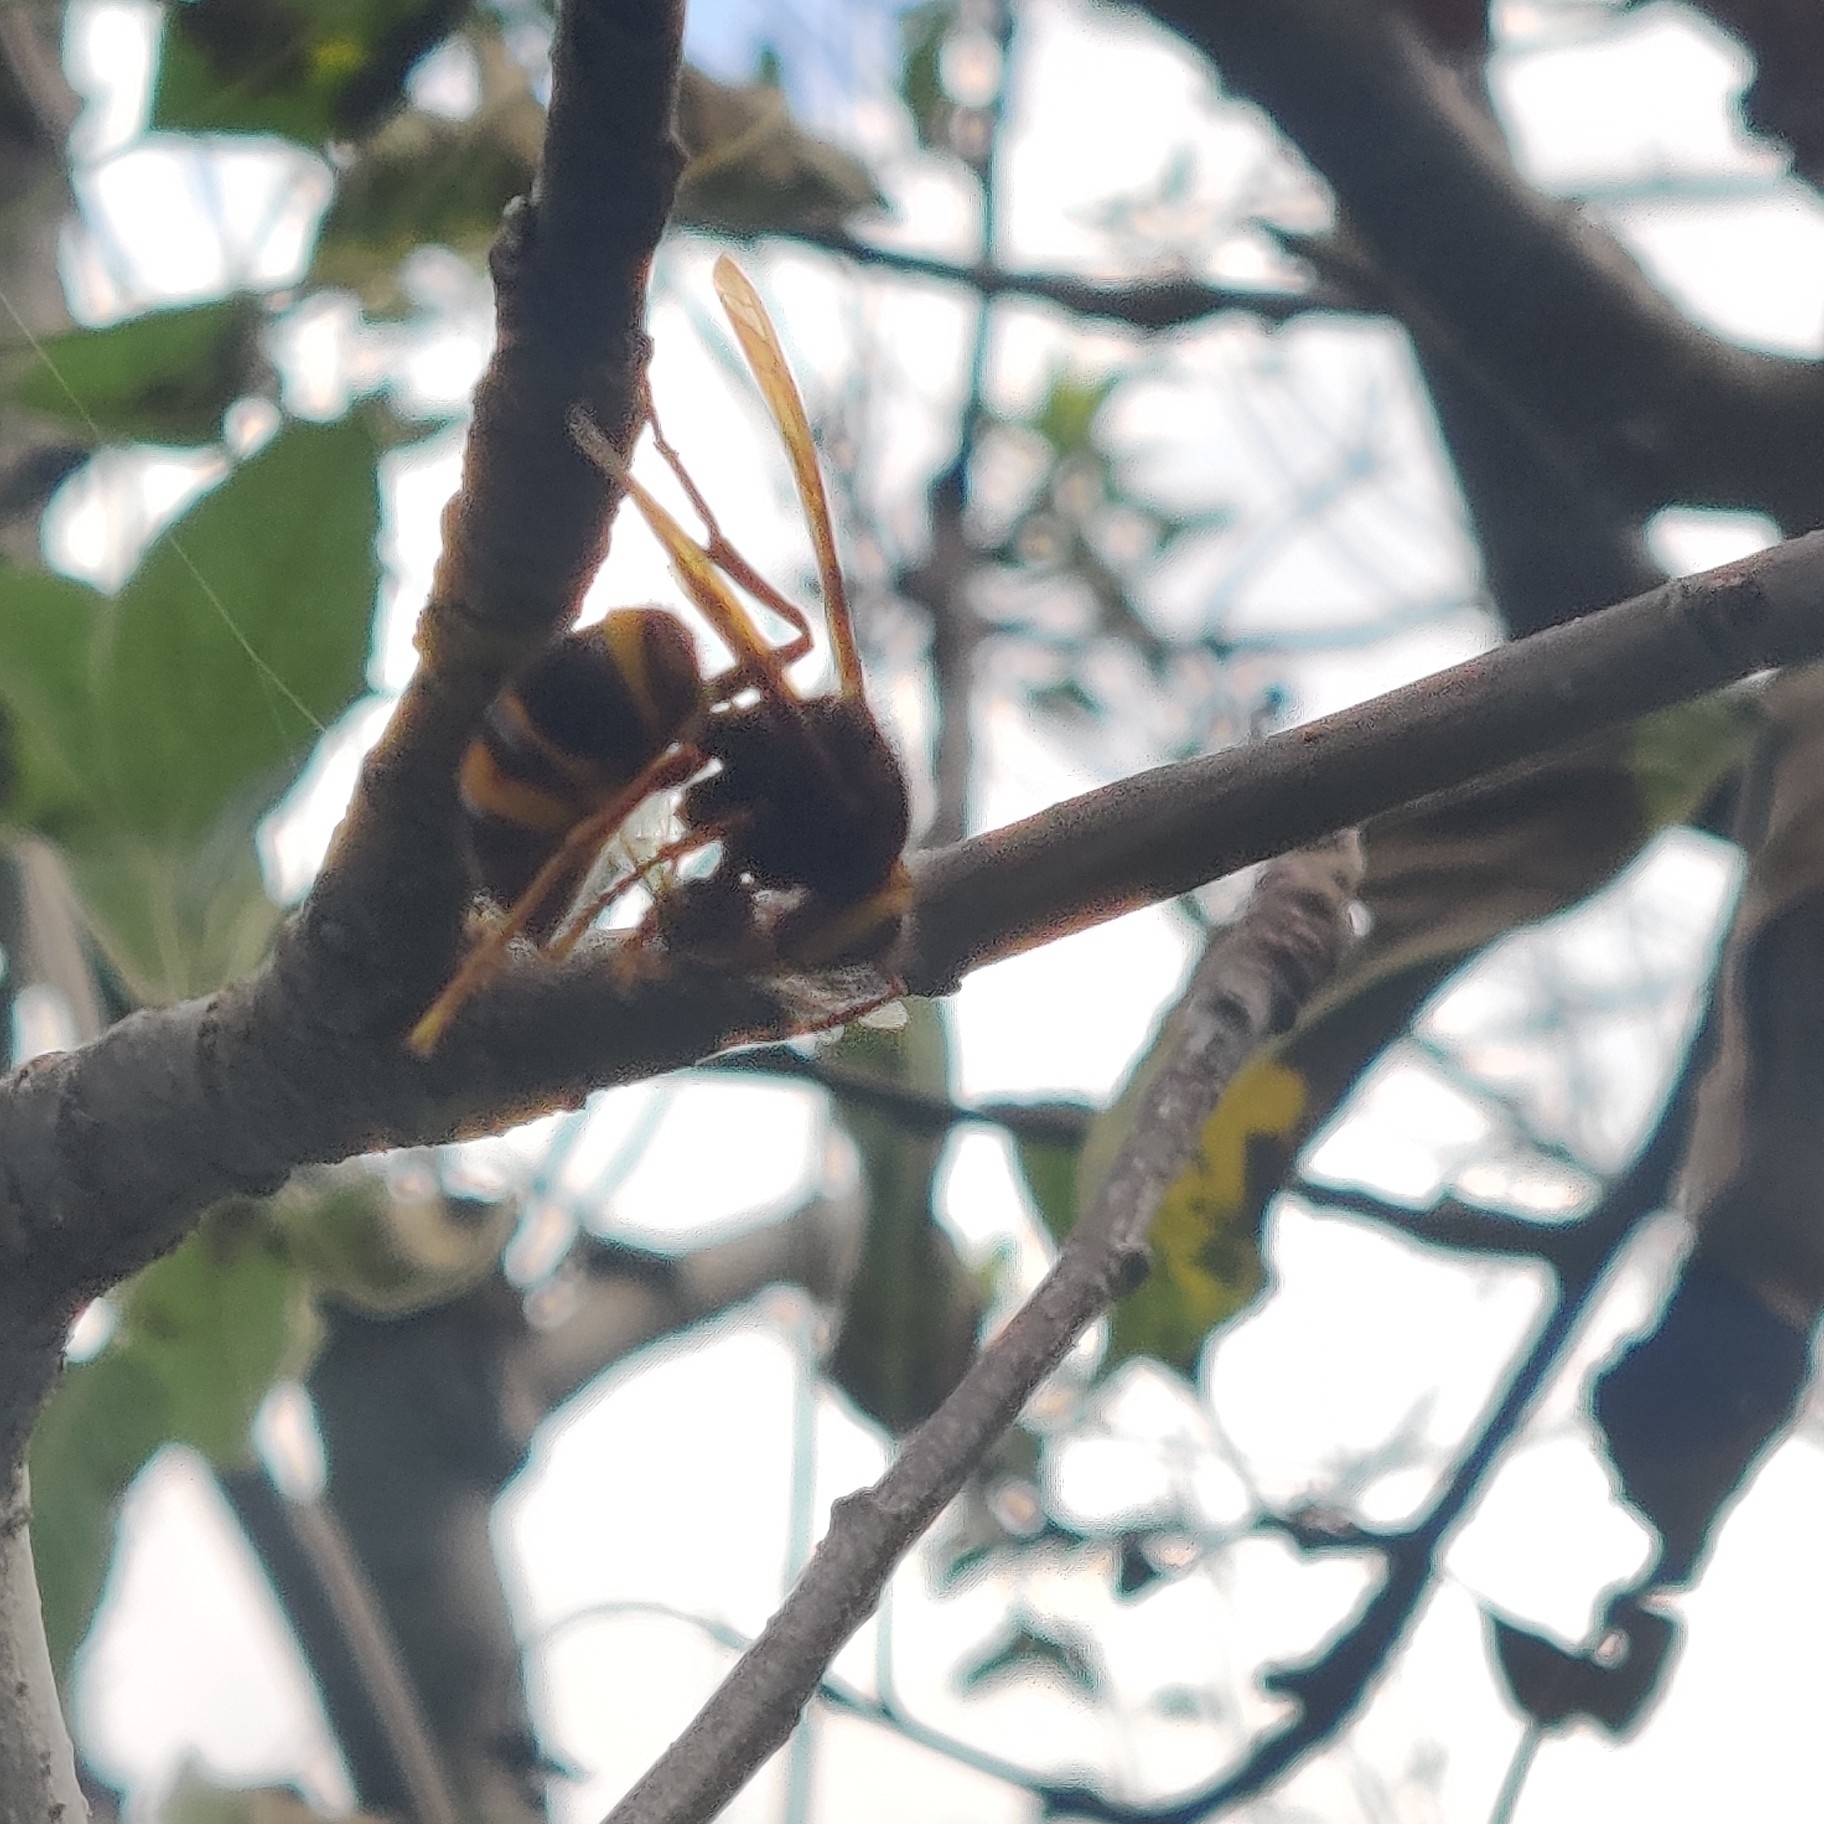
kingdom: Animalia
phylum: Arthropoda
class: Insecta
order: Hymenoptera
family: Vespidae
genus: Vespa
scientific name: Vespa velutina
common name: Asian hornet
